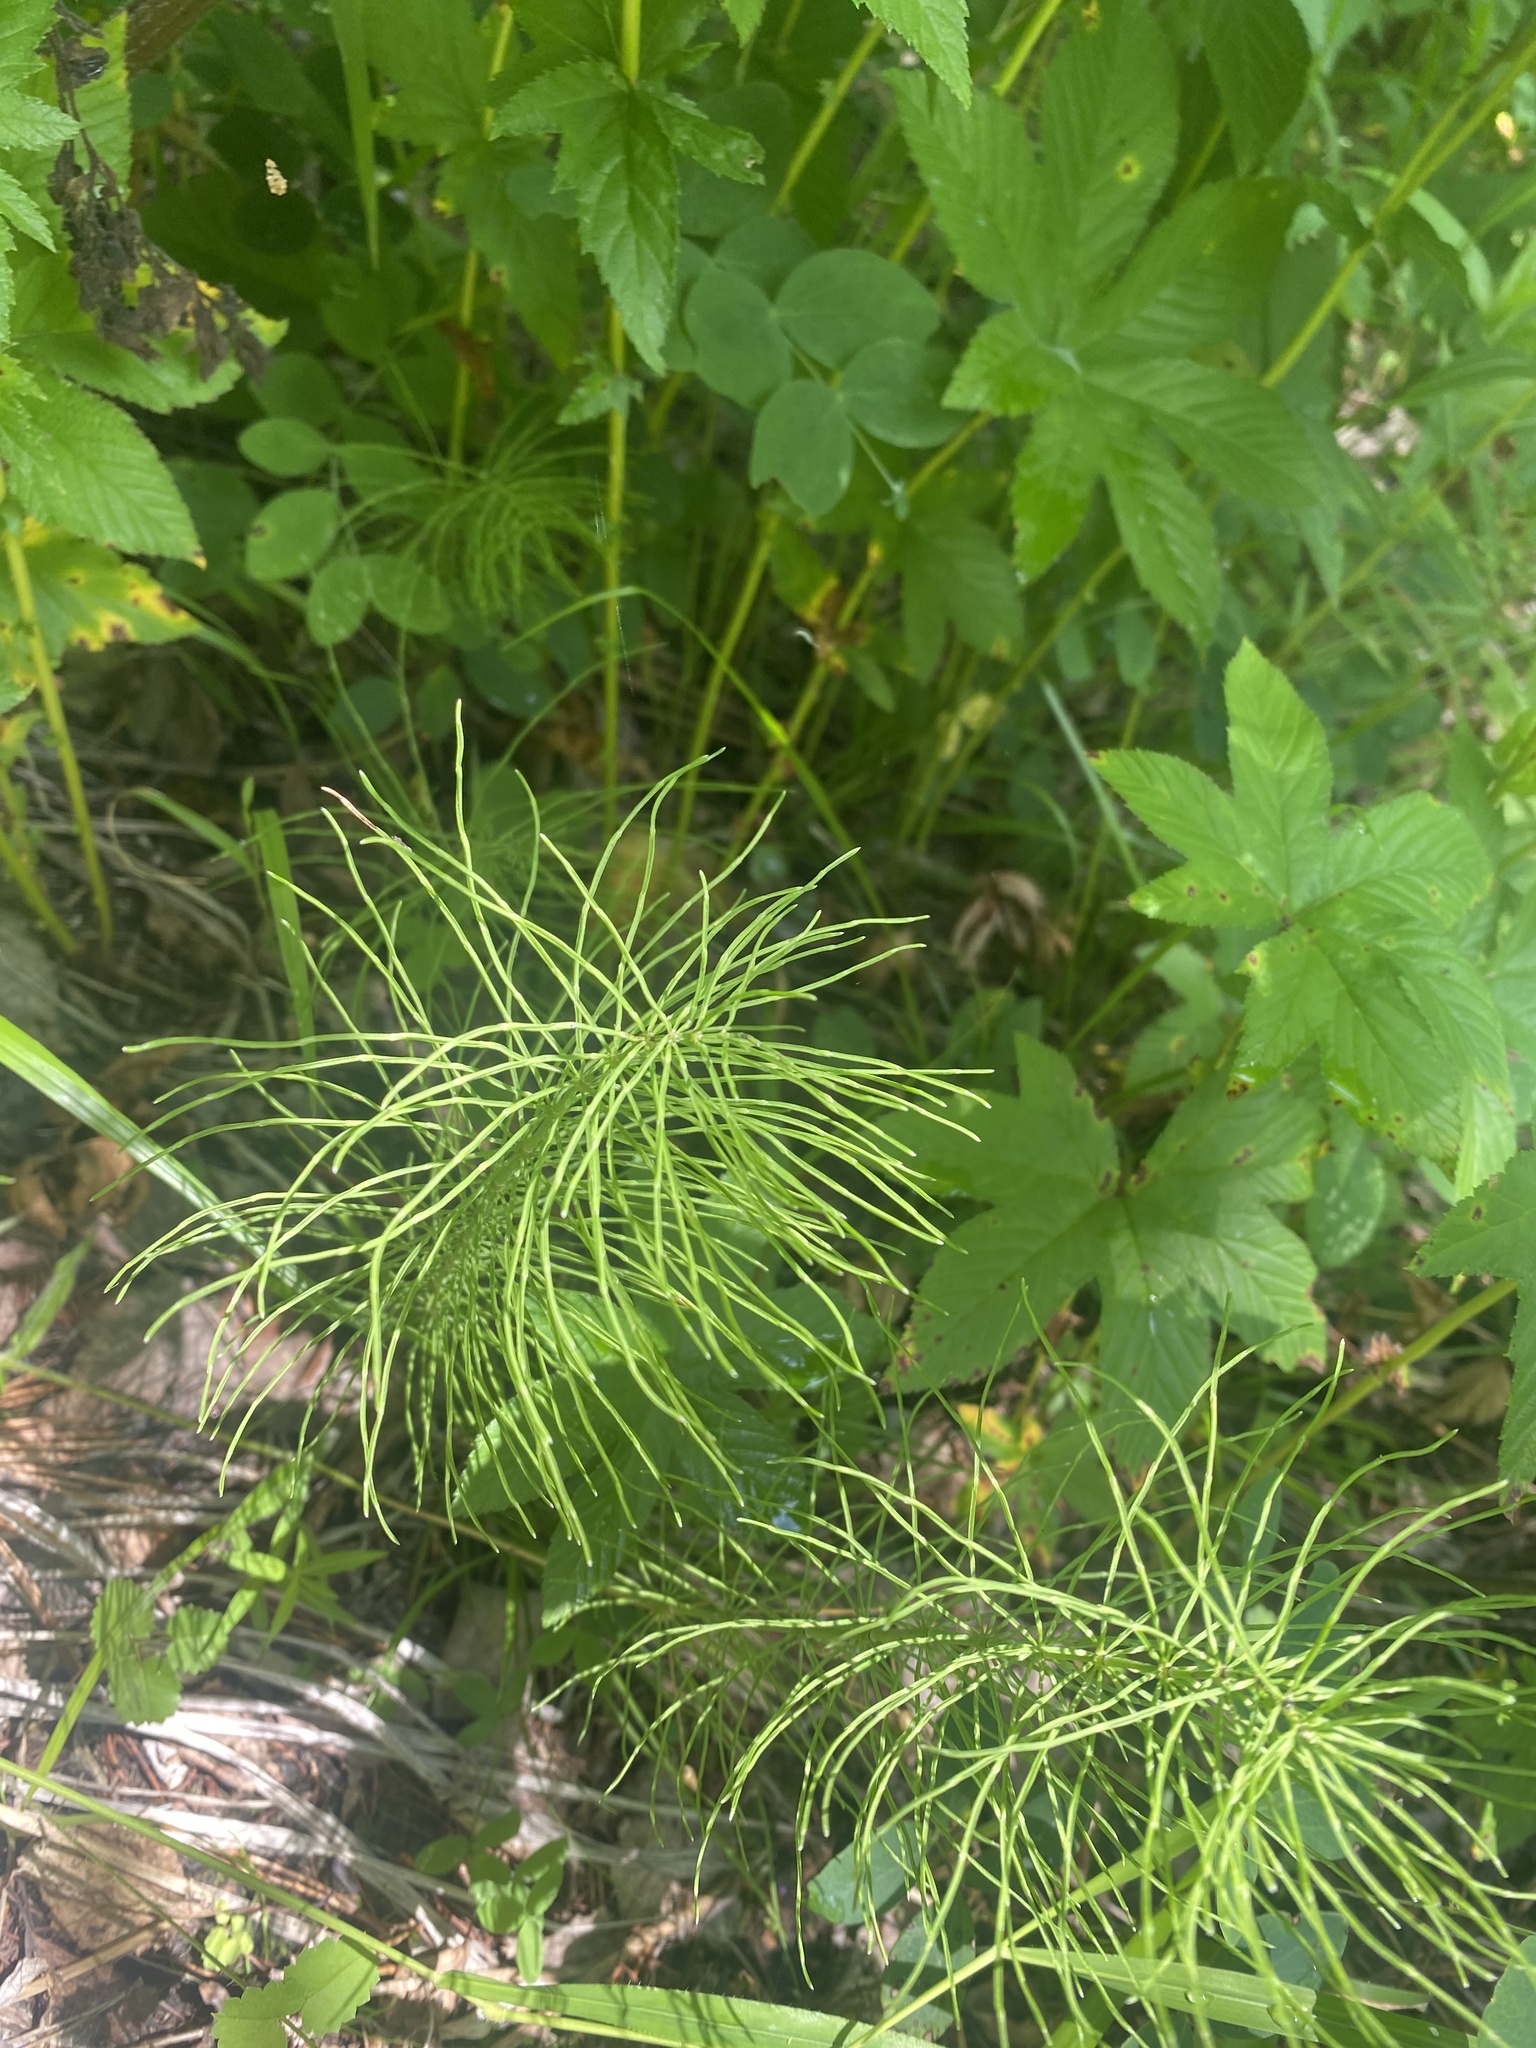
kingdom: Plantae
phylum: Tracheophyta
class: Polypodiopsida
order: Equisetales
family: Equisetaceae
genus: Equisetum
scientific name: Equisetum pratense
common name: Meadow horsetail
